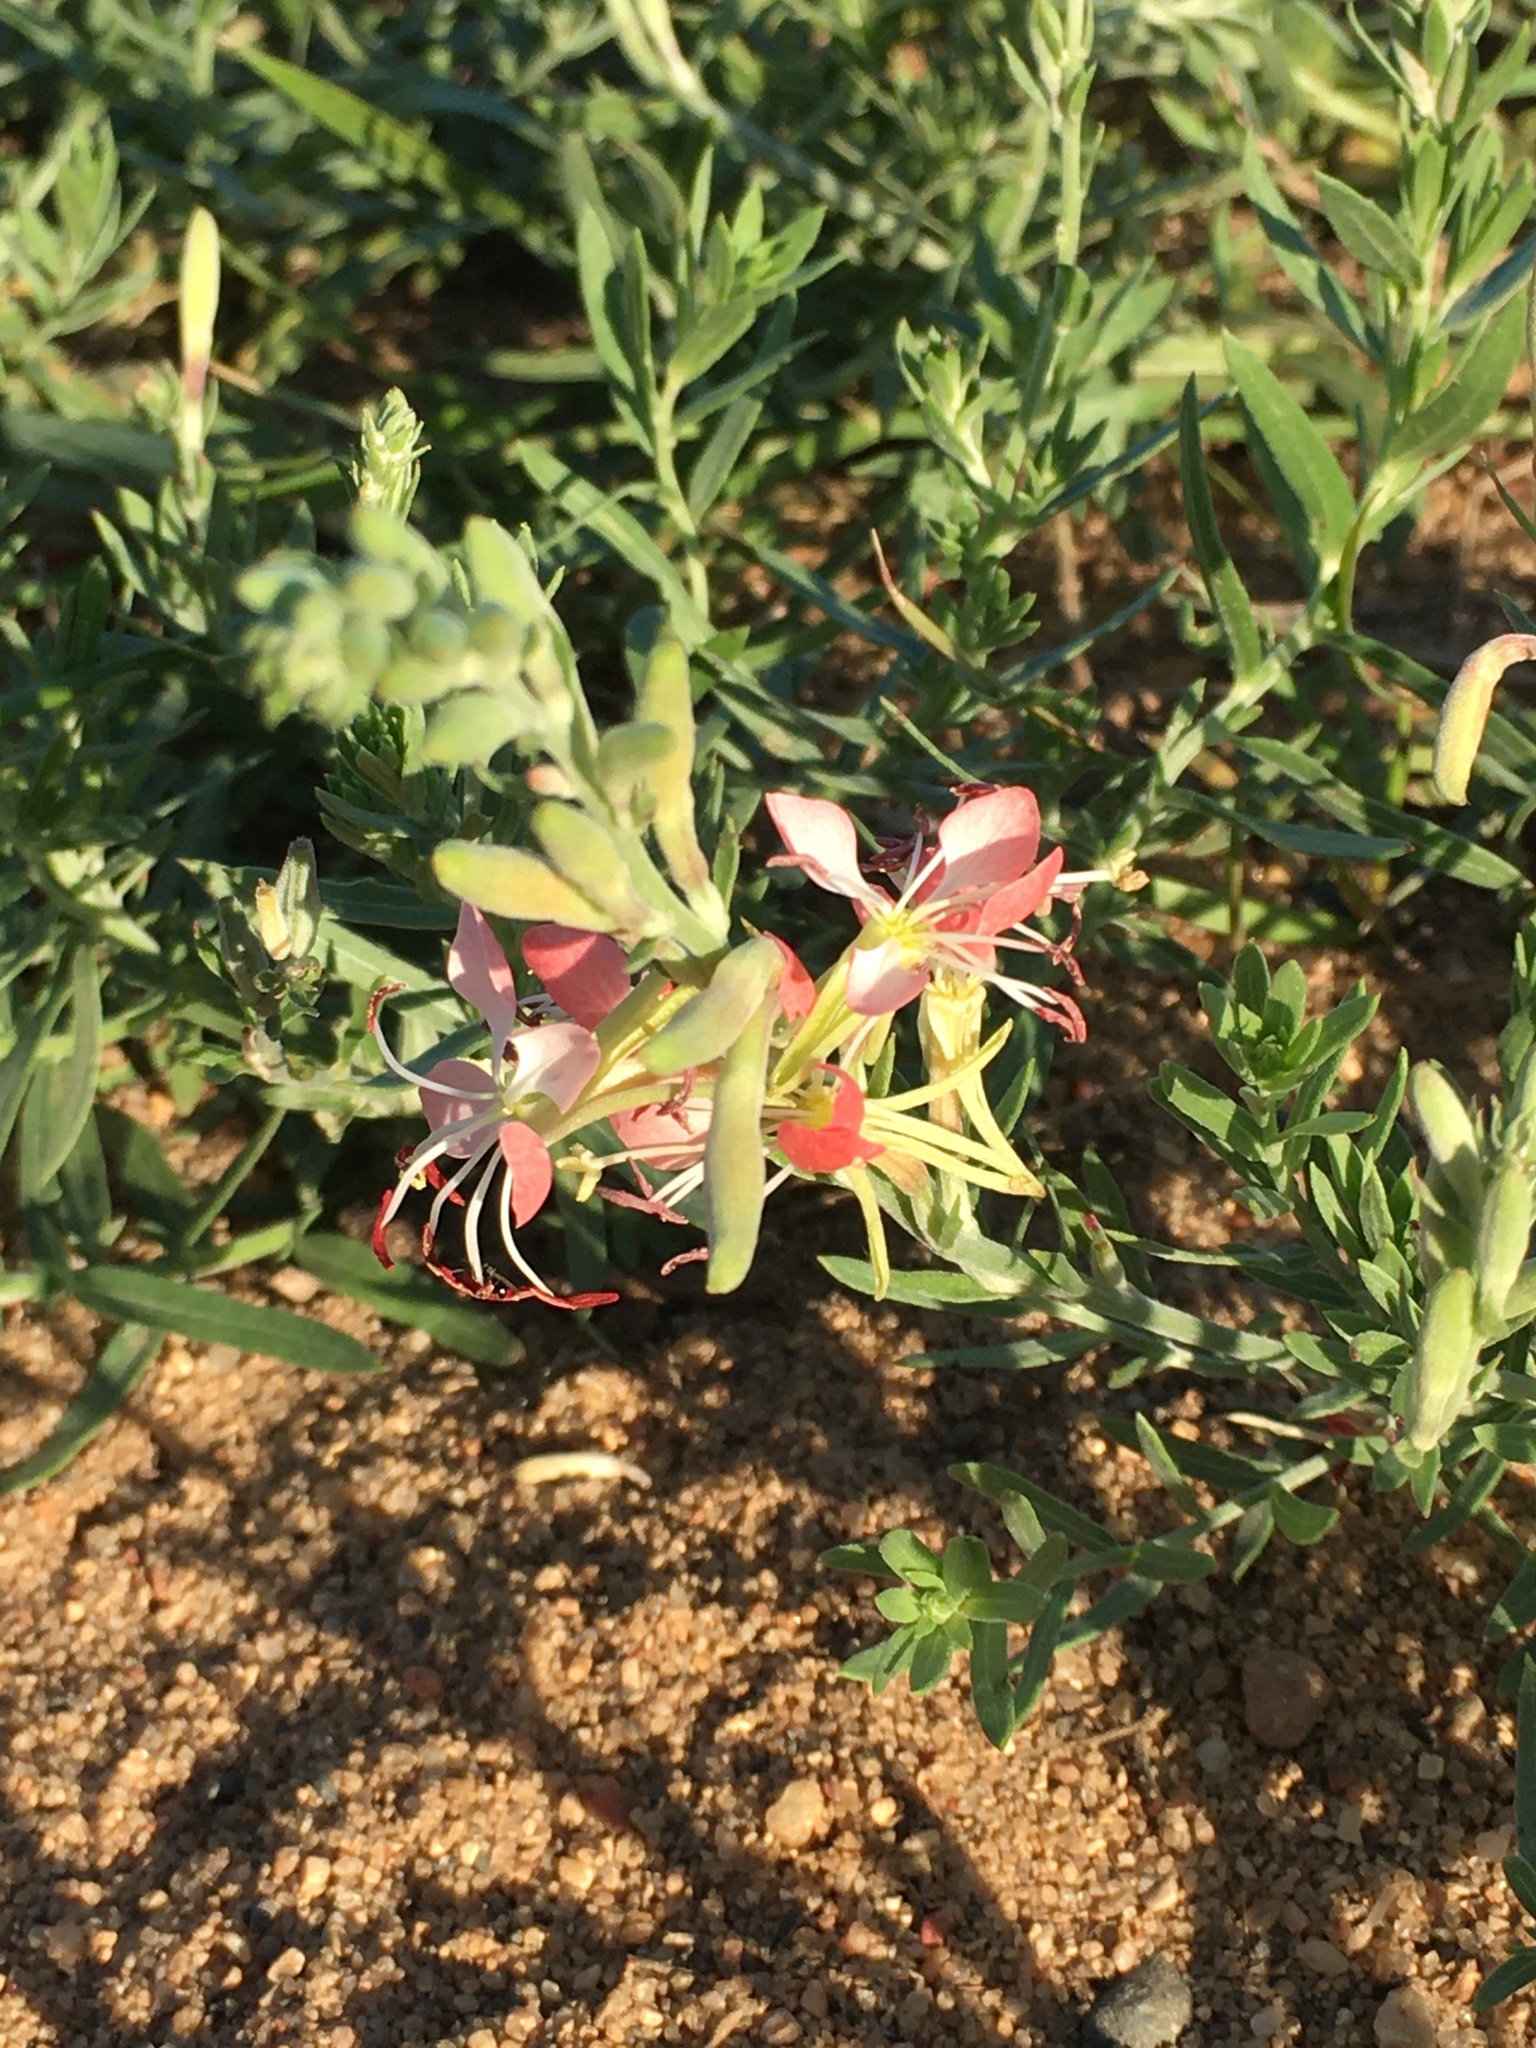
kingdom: Plantae
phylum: Tracheophyta
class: Magnoliopsida
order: Myrtales
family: Onagraceae
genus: Oenothera
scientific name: Oenothera suffrutescens
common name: Scarlet beeblossom
